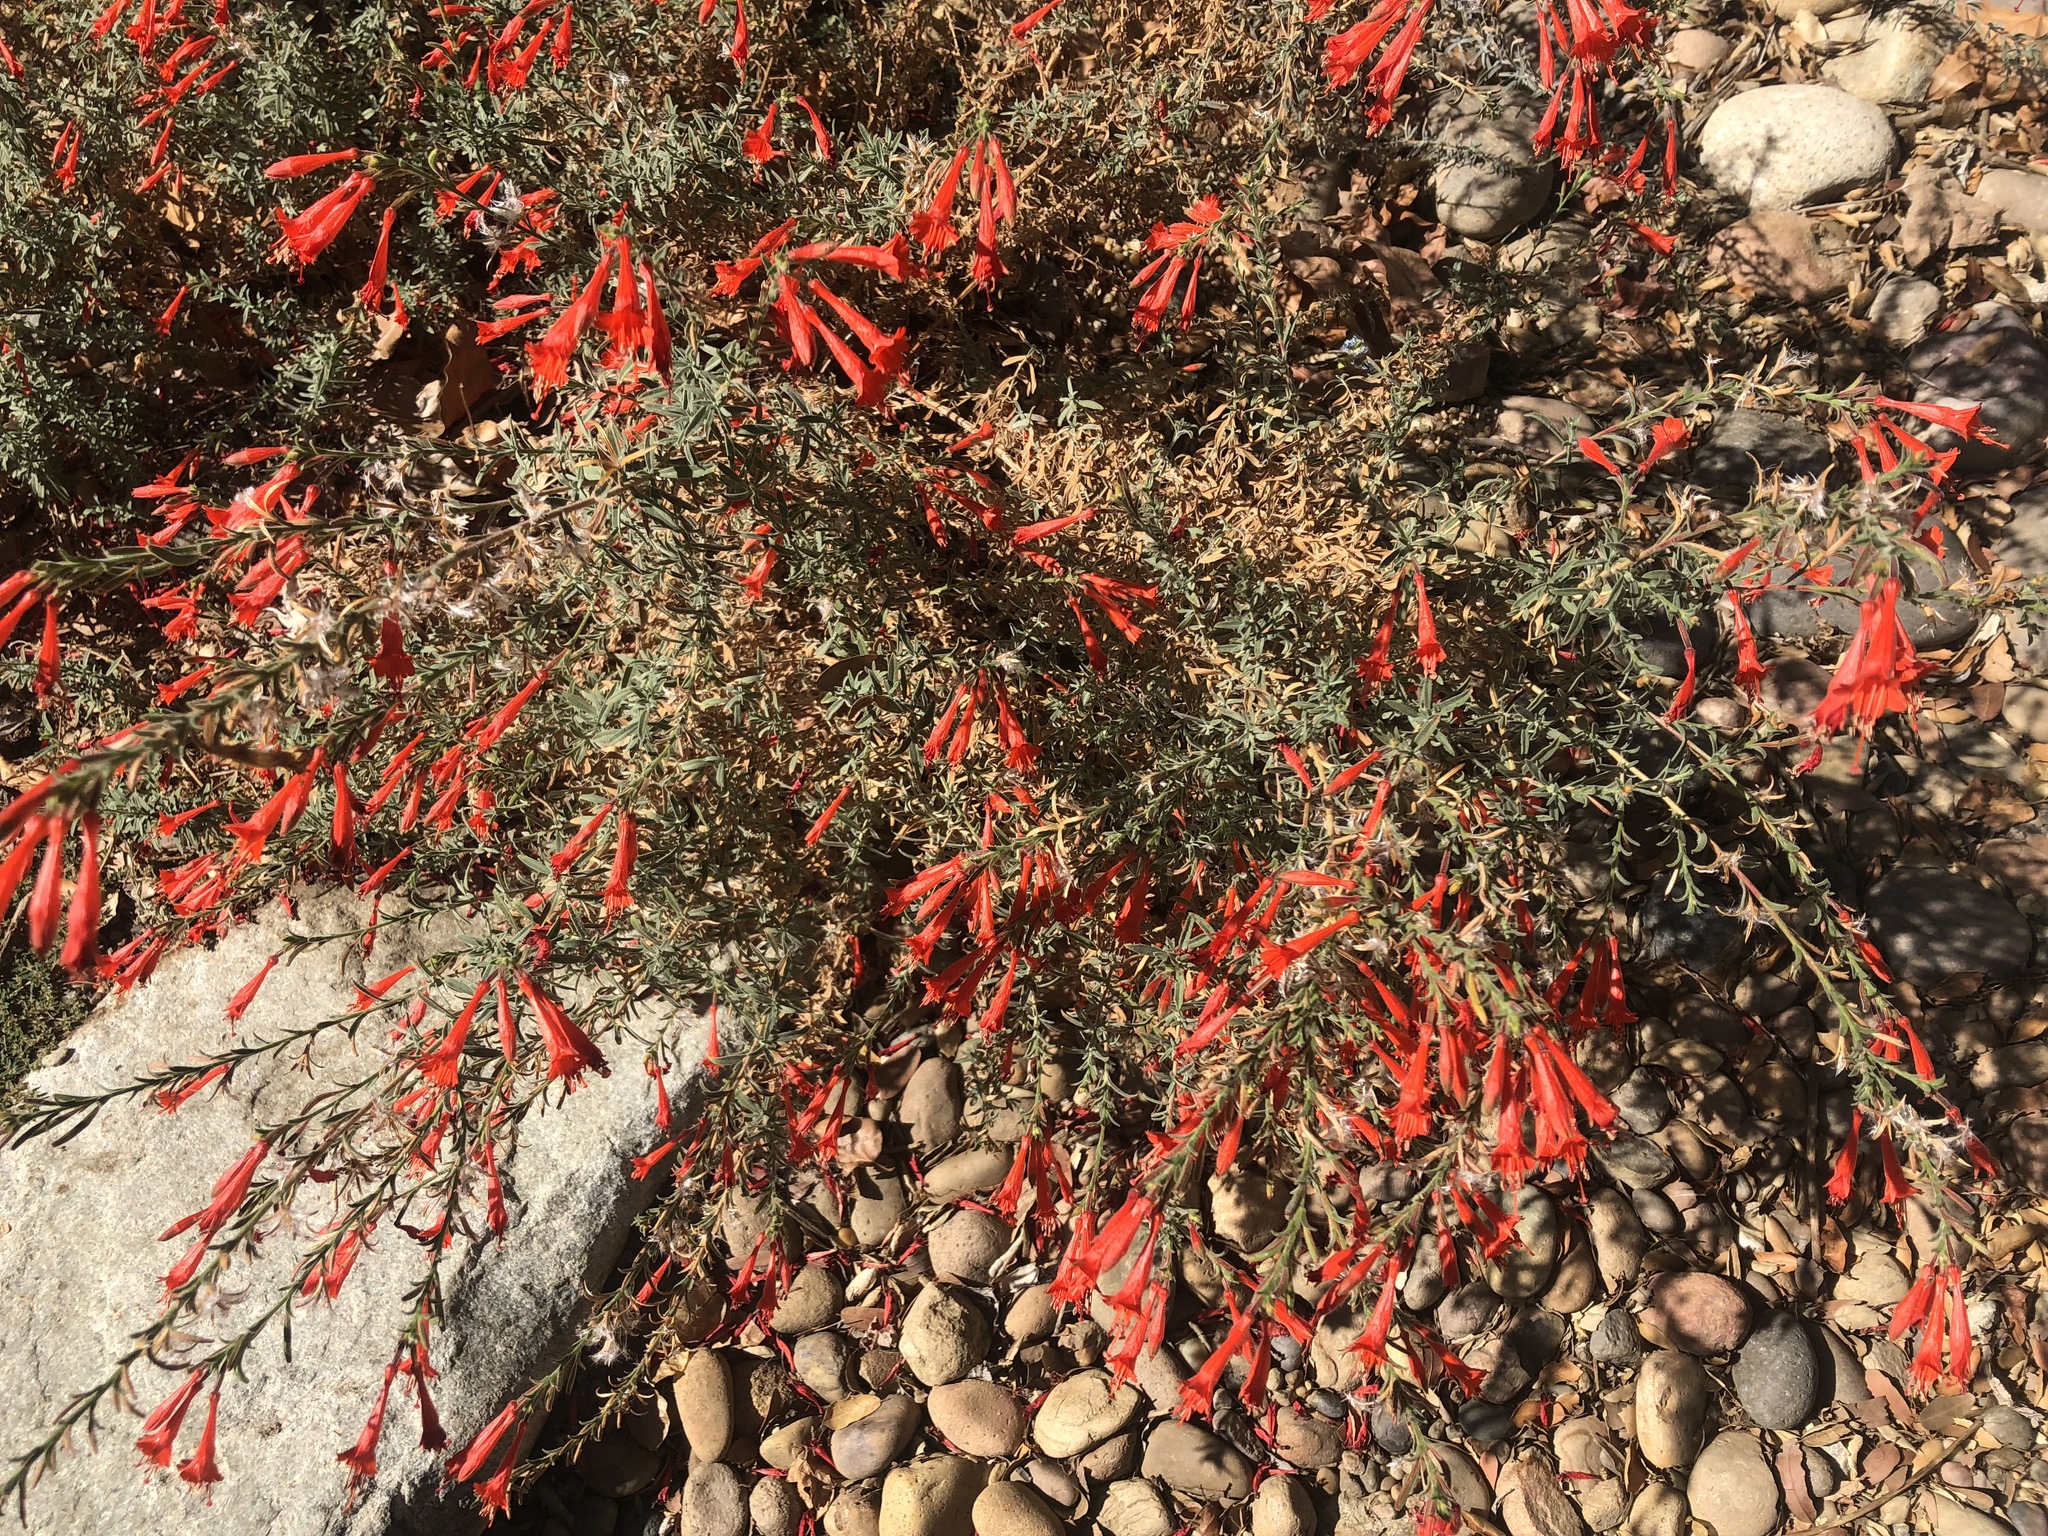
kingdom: Plantae
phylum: Tracheophyta
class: Magnoliopsida
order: Myrtales
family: Onagraceae
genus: Epilobium
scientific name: Epilobium canum
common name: California-fuchsia
